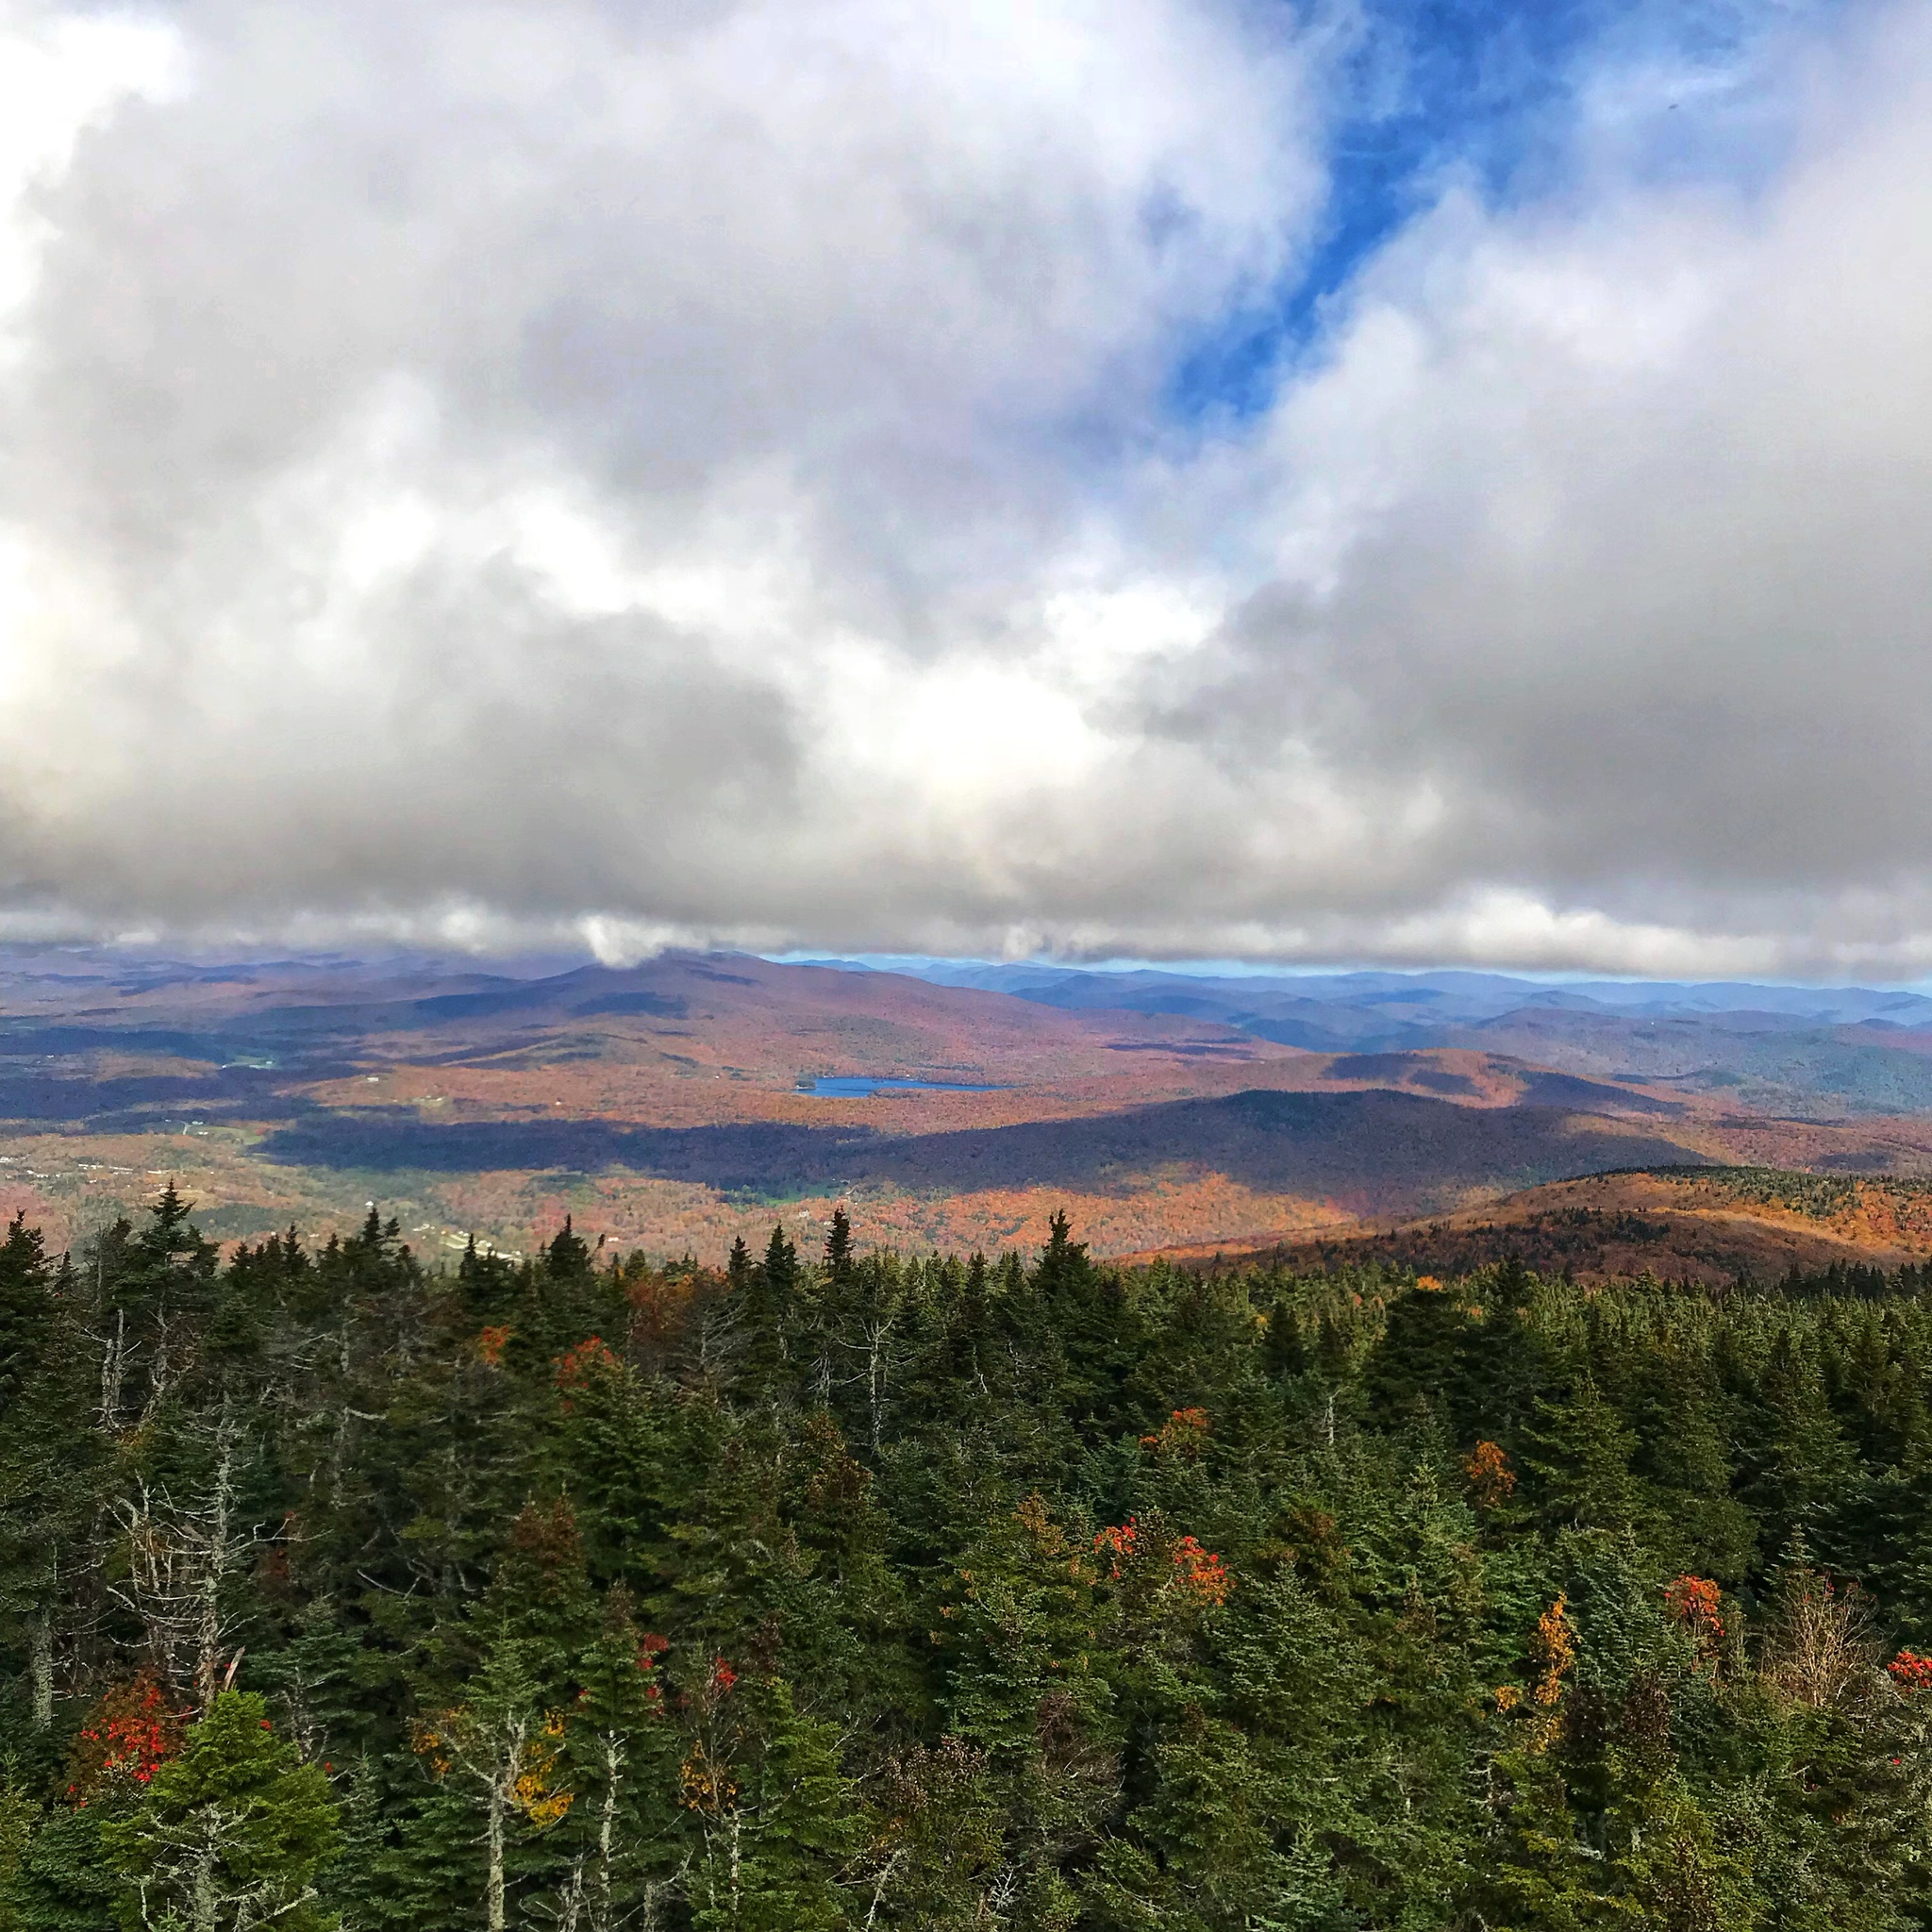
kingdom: Plantae
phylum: Tracheophyta
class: Pinopsida
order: Pinales
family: Pinaceae
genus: Abies
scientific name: Abies balsamea
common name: Balsam fir
